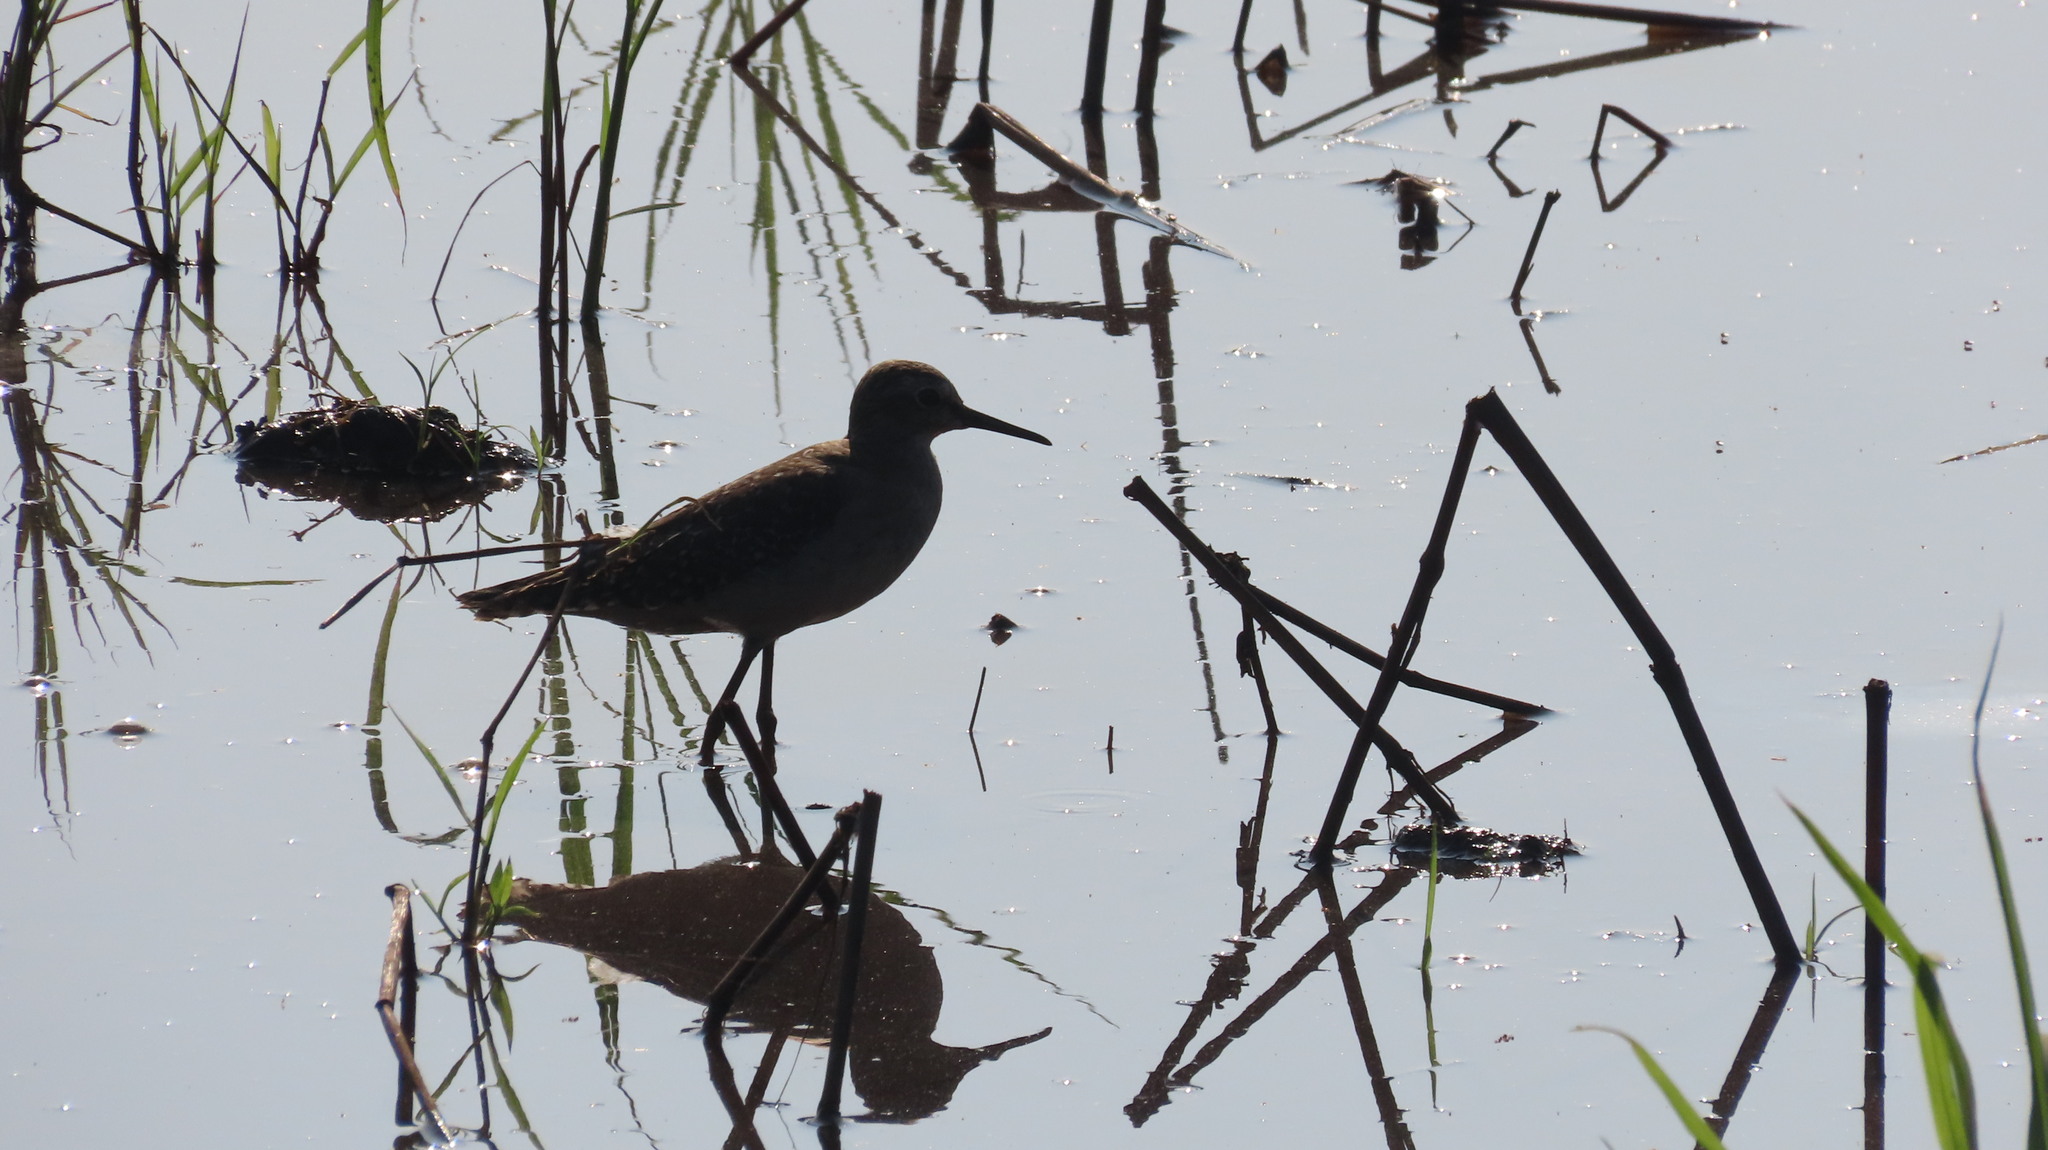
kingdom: Animalia
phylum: Chordata
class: Aves
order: Charadriiformes
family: Scolopacidae
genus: Tringa
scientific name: Tringa glareola
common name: Wood sandpiper
